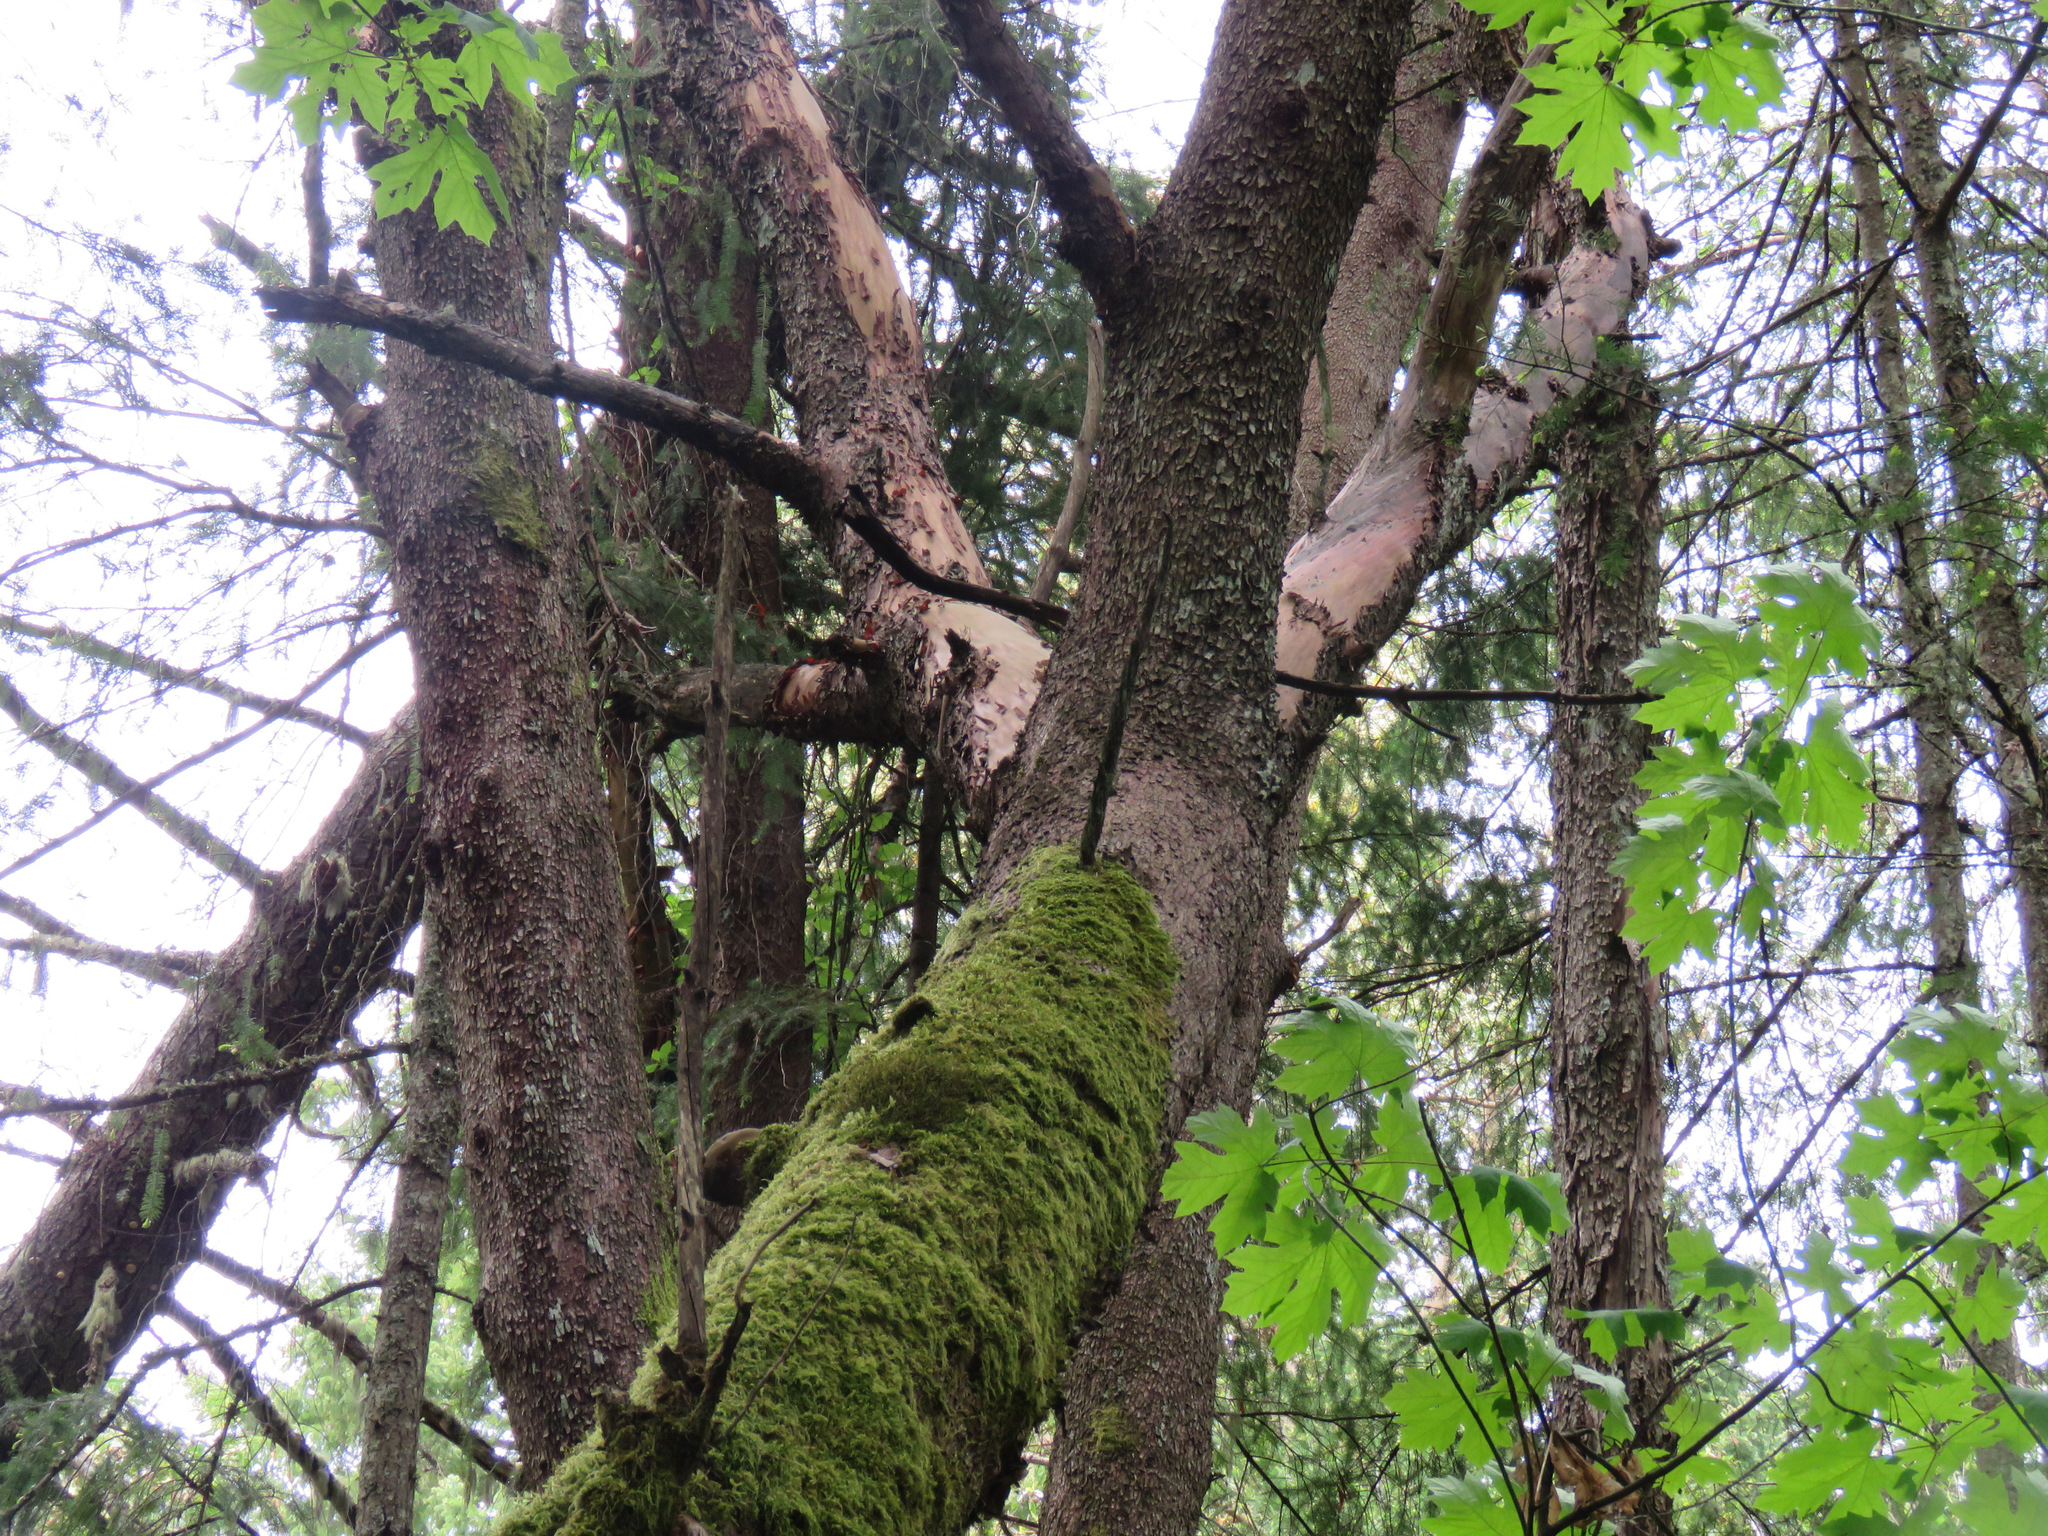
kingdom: Plantae
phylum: Tracheophyta
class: Magnoliopsida
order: Ericales
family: Ericaceae
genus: Arbutus
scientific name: Arbutus menziesii
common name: Pacific madrone
